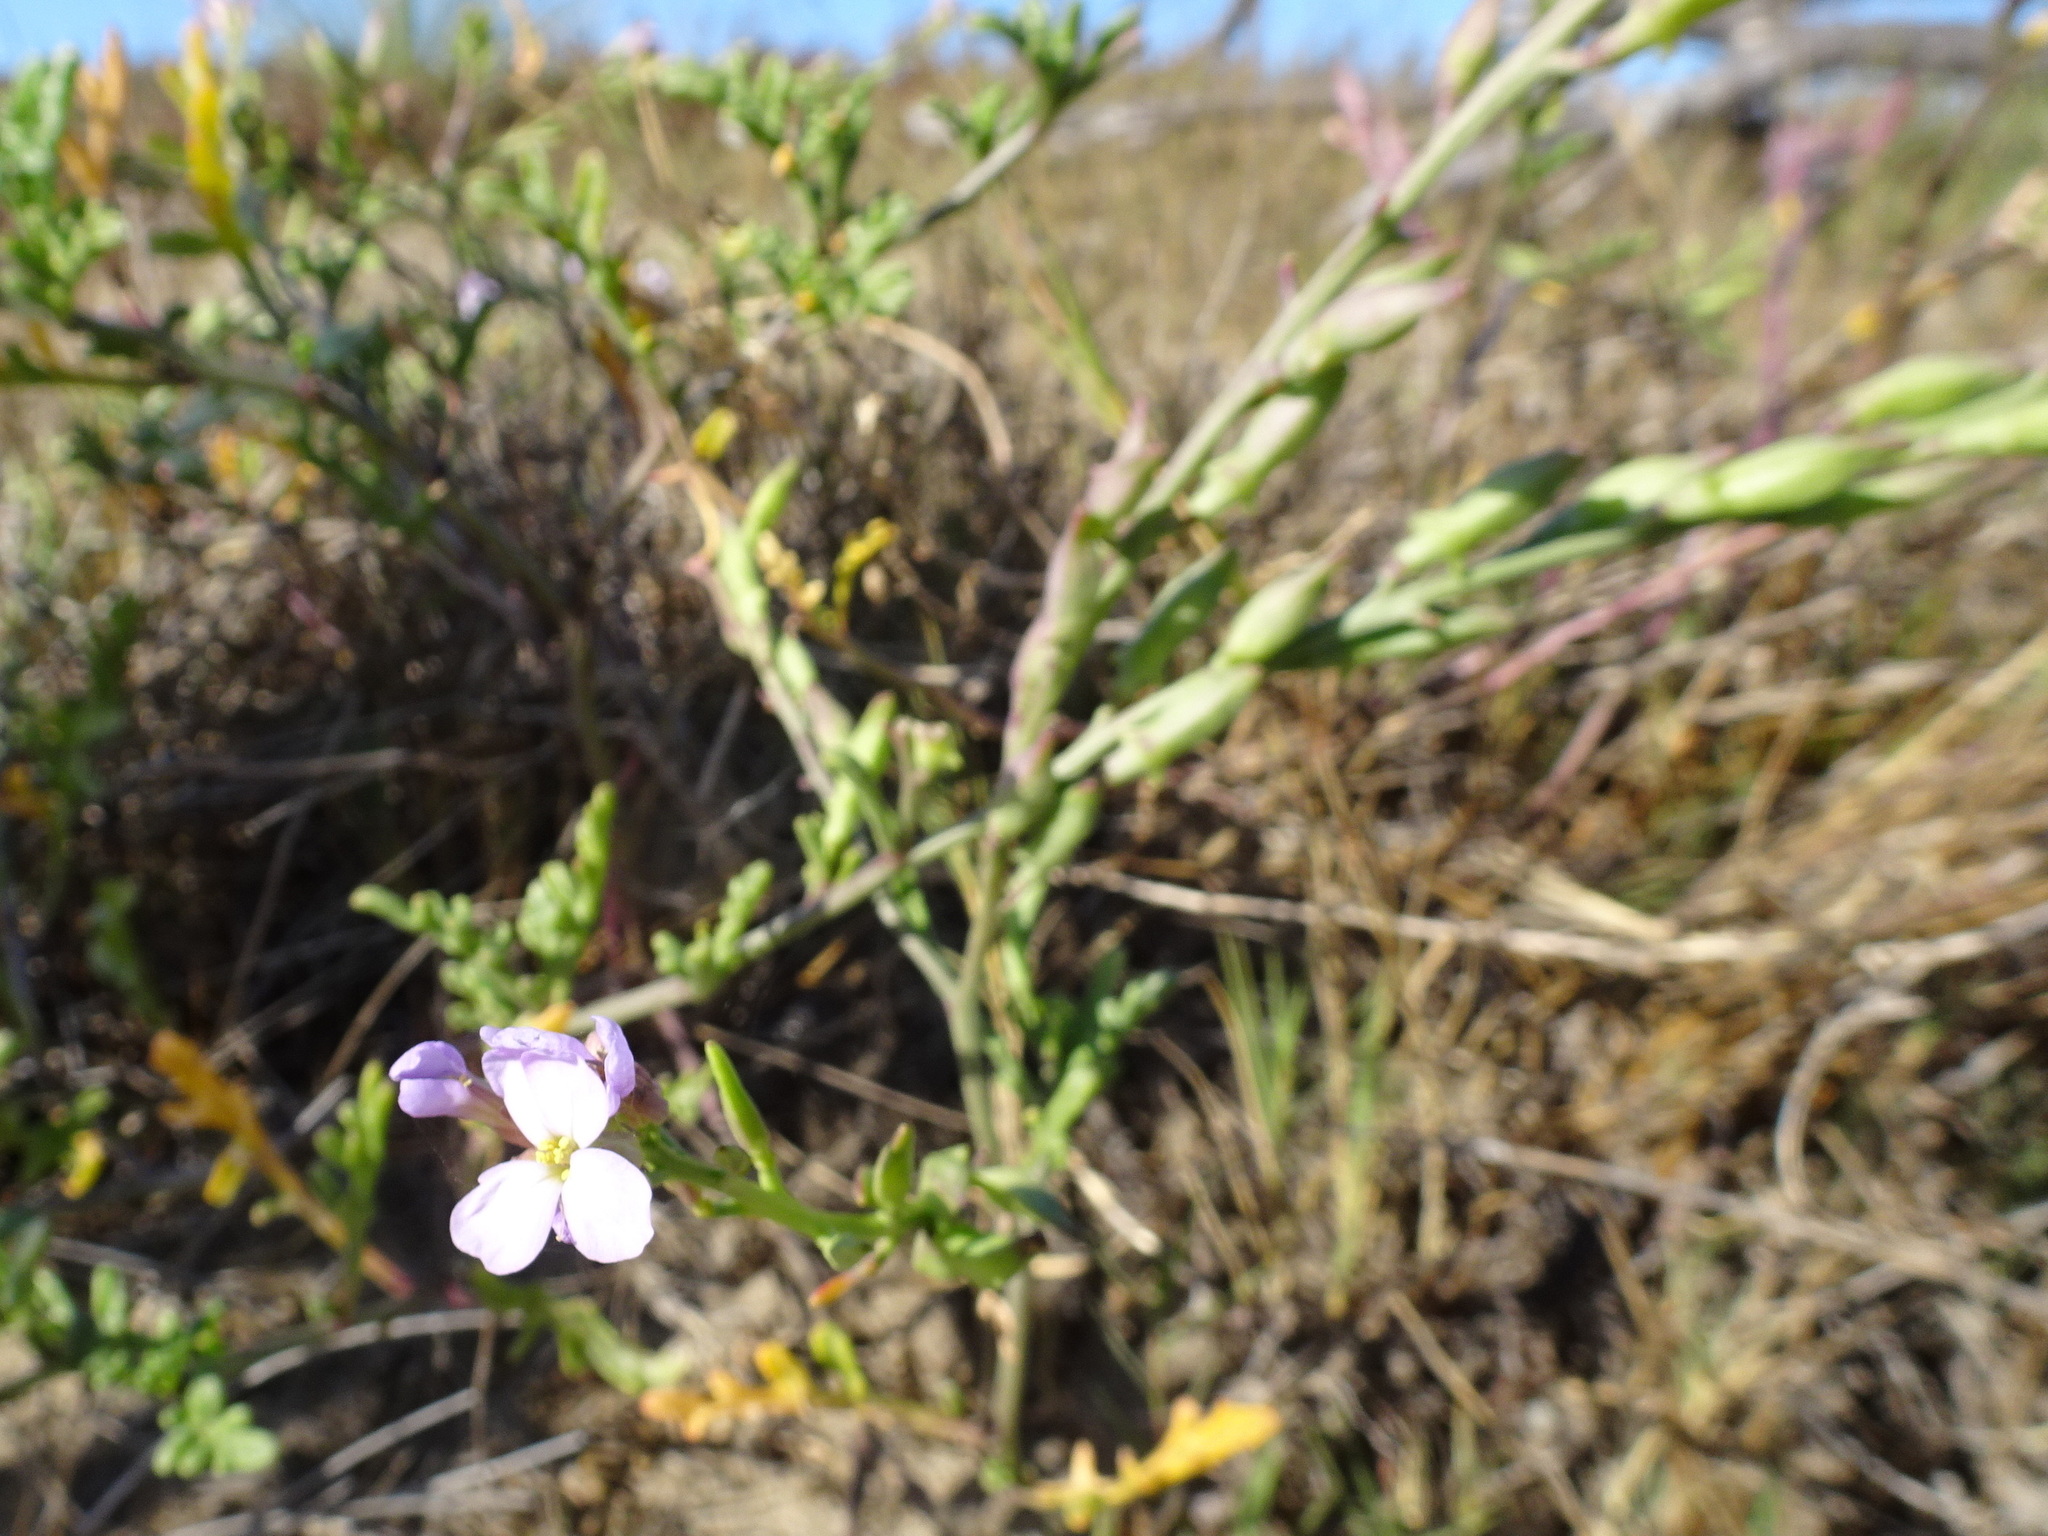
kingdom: Plantae
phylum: Tracheophyta
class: Magnoliopsida
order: Brassicales
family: Brassicaceae
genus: Cakile
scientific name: Cakile maritima
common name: Sea rocket
